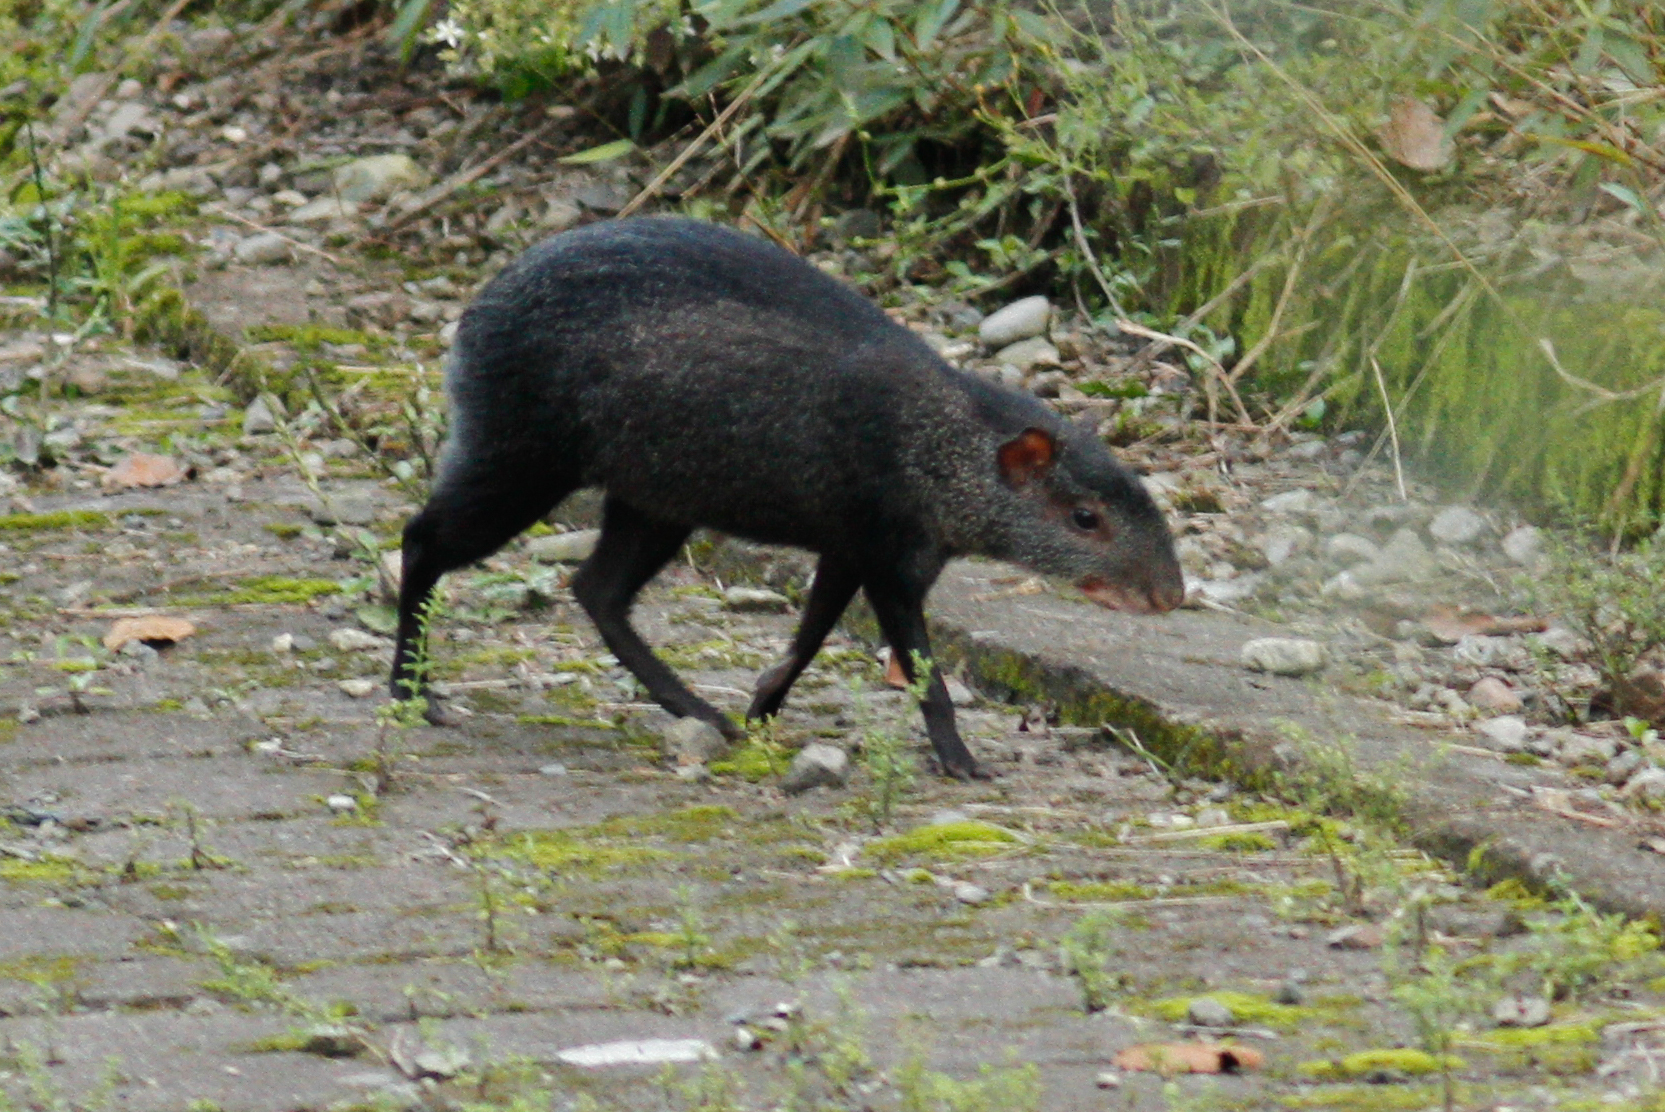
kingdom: Animalia
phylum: Chordata
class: Mammalia
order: Rodentia
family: Dasyproctidae
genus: Dasyprocta
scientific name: Dasyprocta fuliginosa
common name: Black agouti
